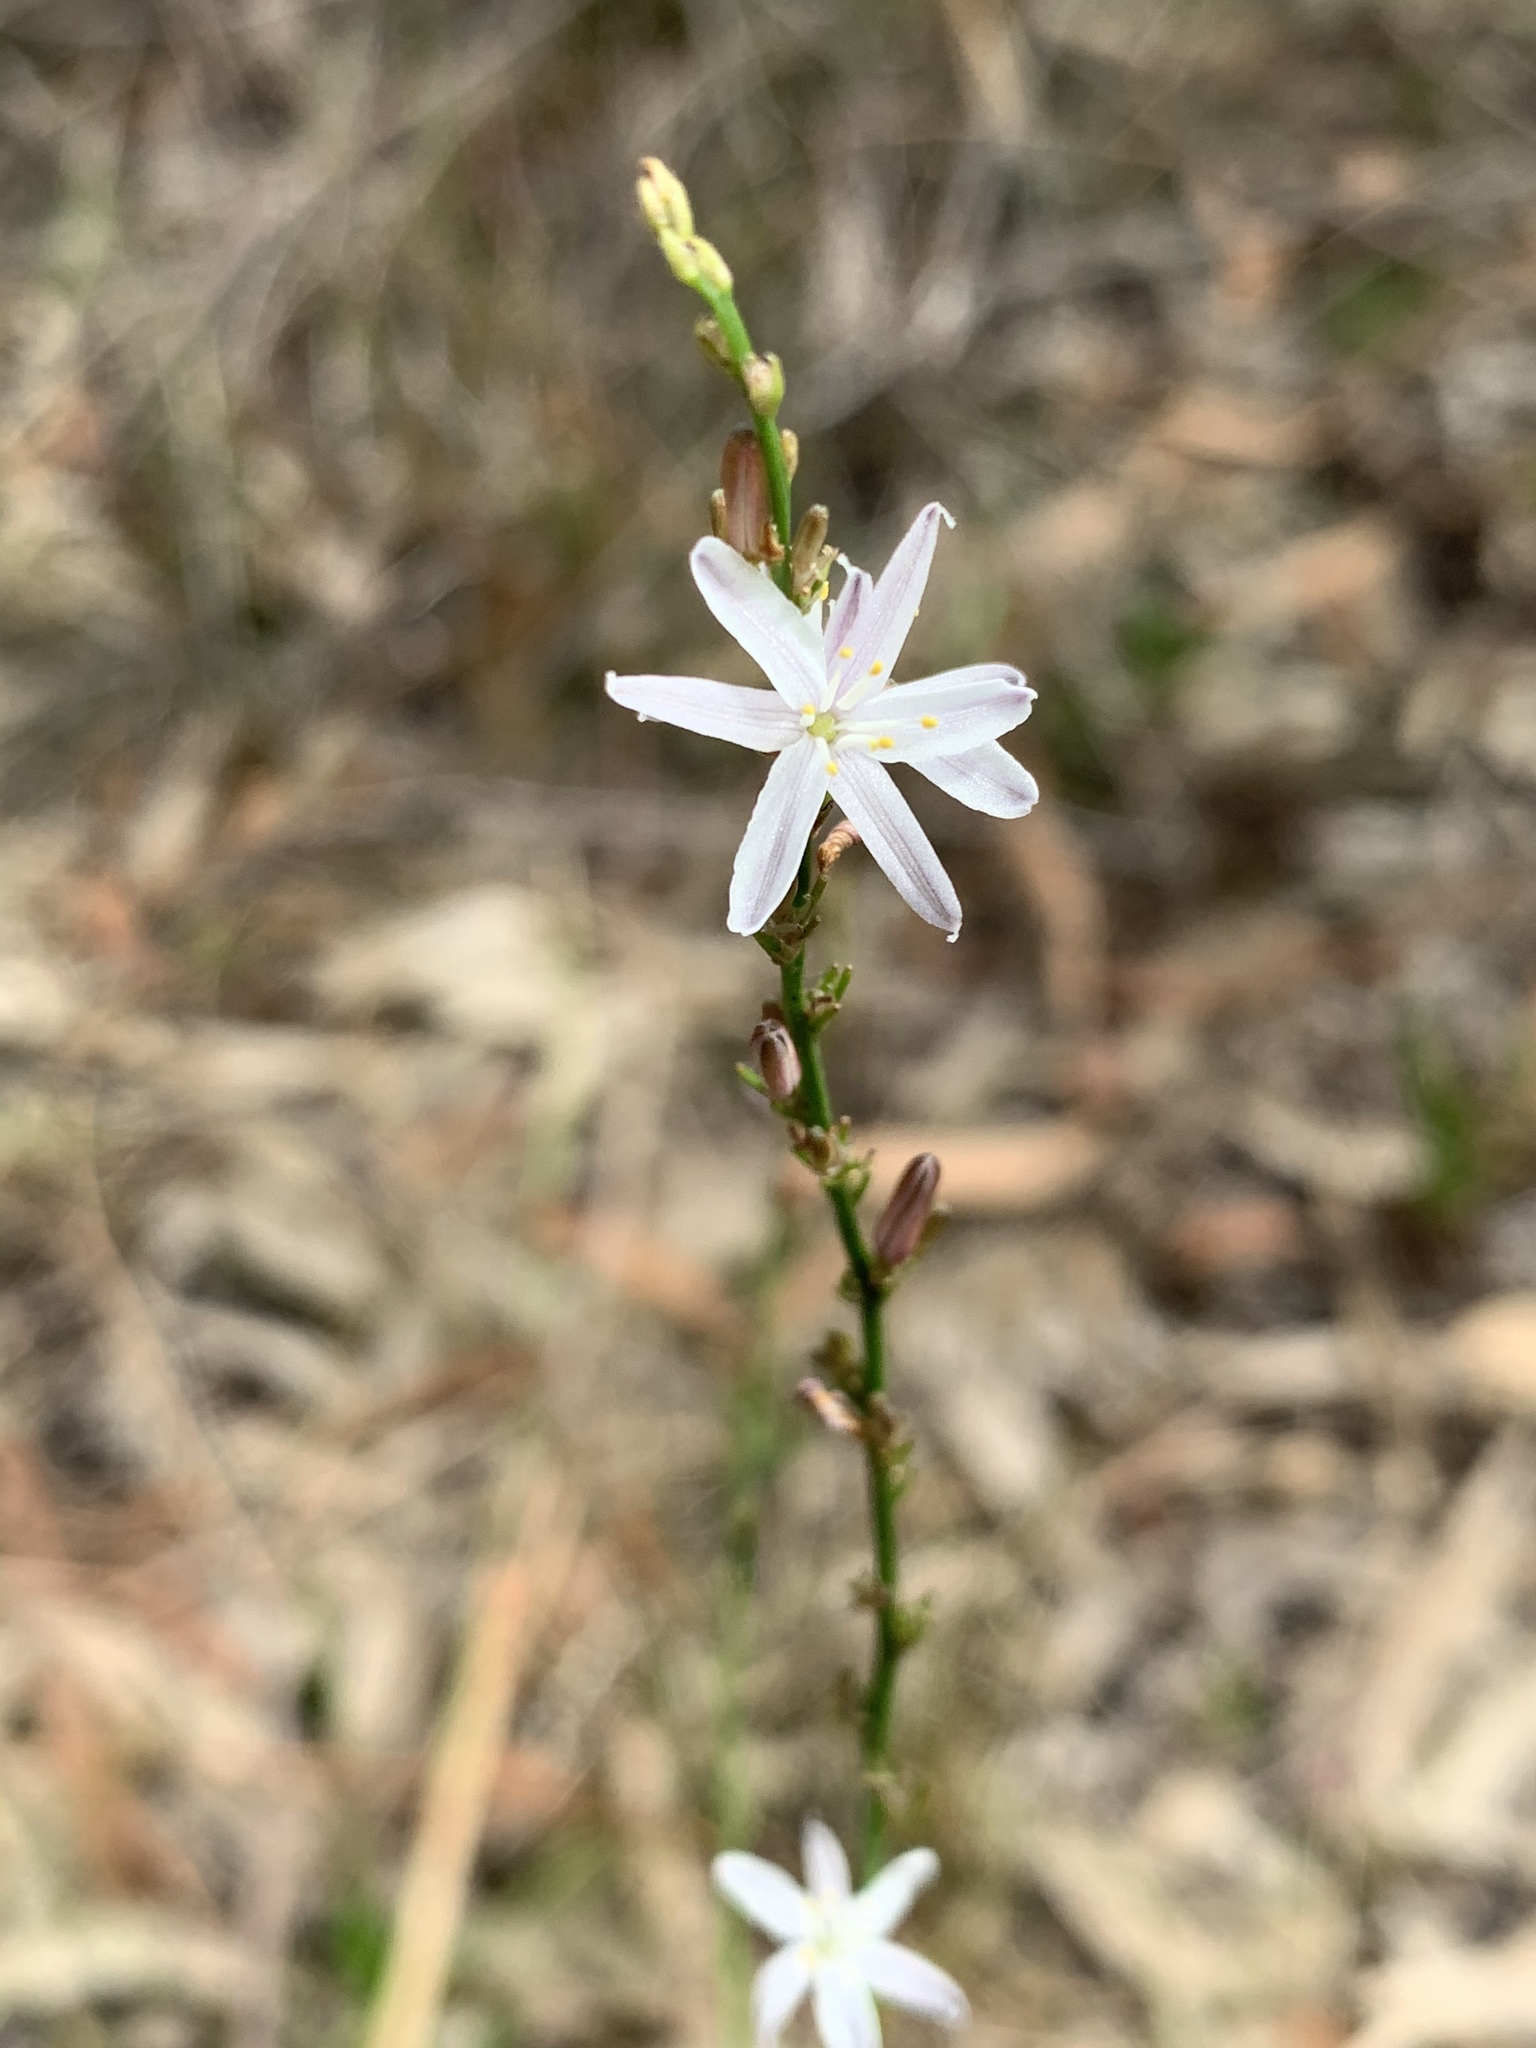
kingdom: Plantae
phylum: Tracheophyta
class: Liliopsida
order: Asparagales
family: Asphodelaceae
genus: Caesia
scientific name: Caesia parviflora
